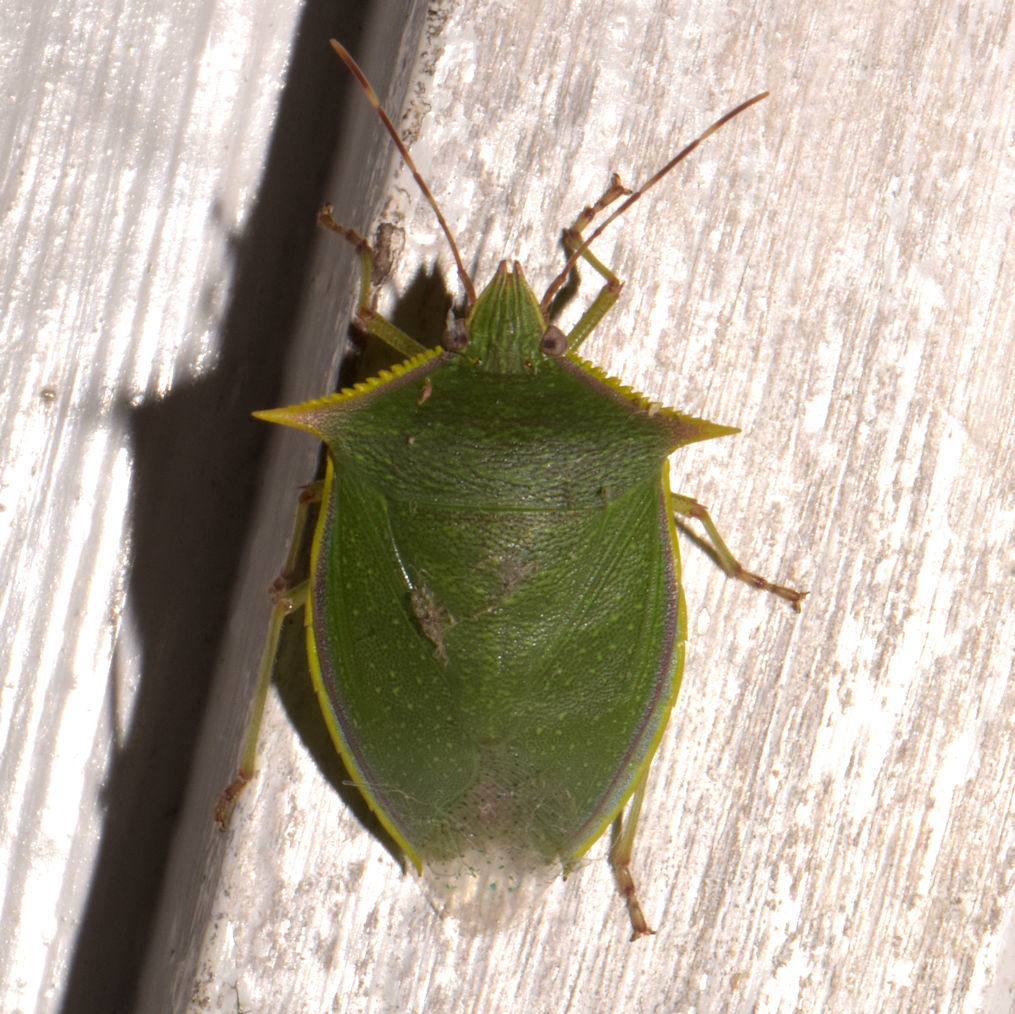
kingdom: Animalia
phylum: Arthropoda
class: Insecta
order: Hemiptera
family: Pentatomidae
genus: Loxa
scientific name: Loxa viridis
